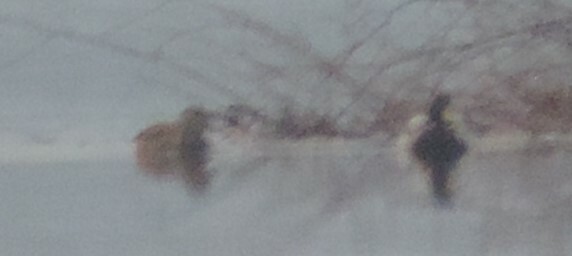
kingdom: Animalia
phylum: Chordata
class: Aves
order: Anseriformes
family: Anatidae
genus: Anas
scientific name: Anas platyrhynchos
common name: Mallard
